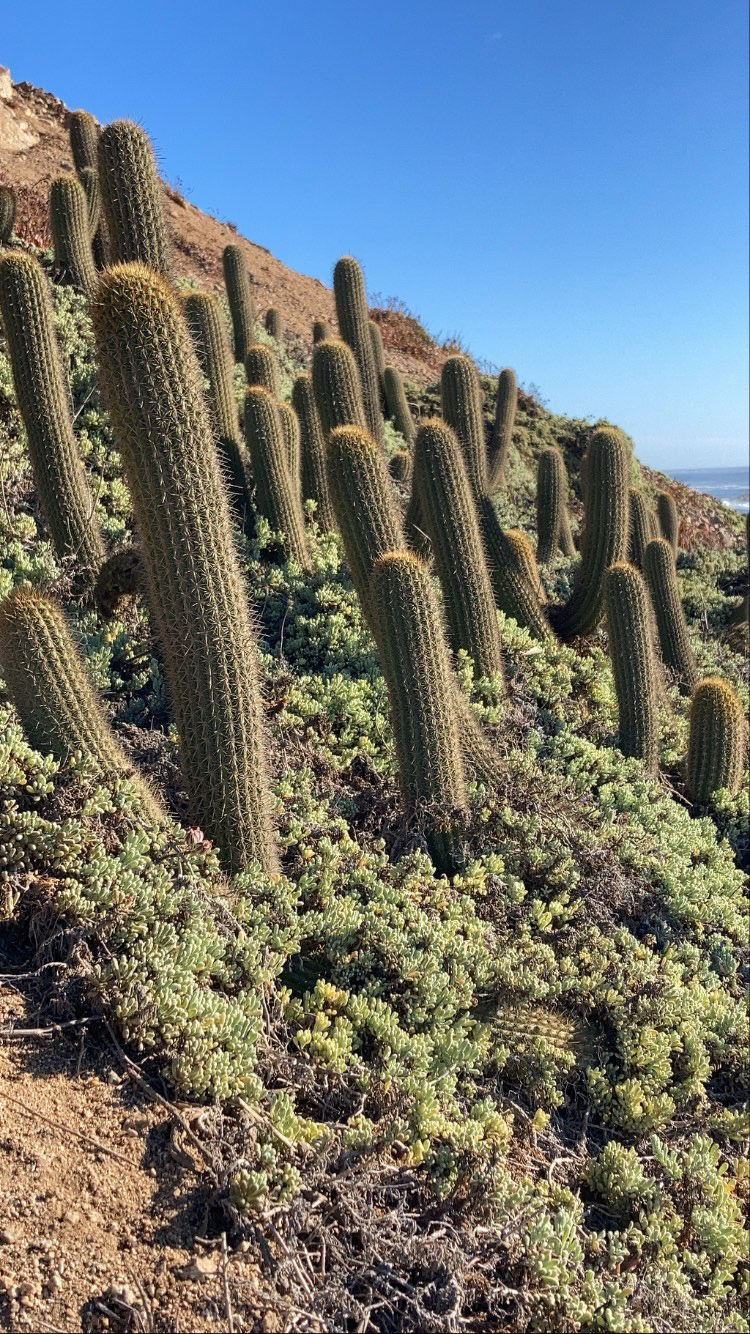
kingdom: Plantae
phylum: Tracheophyta
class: Magnoliopsida
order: Caryophyllales
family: Cactaceae
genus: Leucostele
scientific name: Leucostele litoralis
